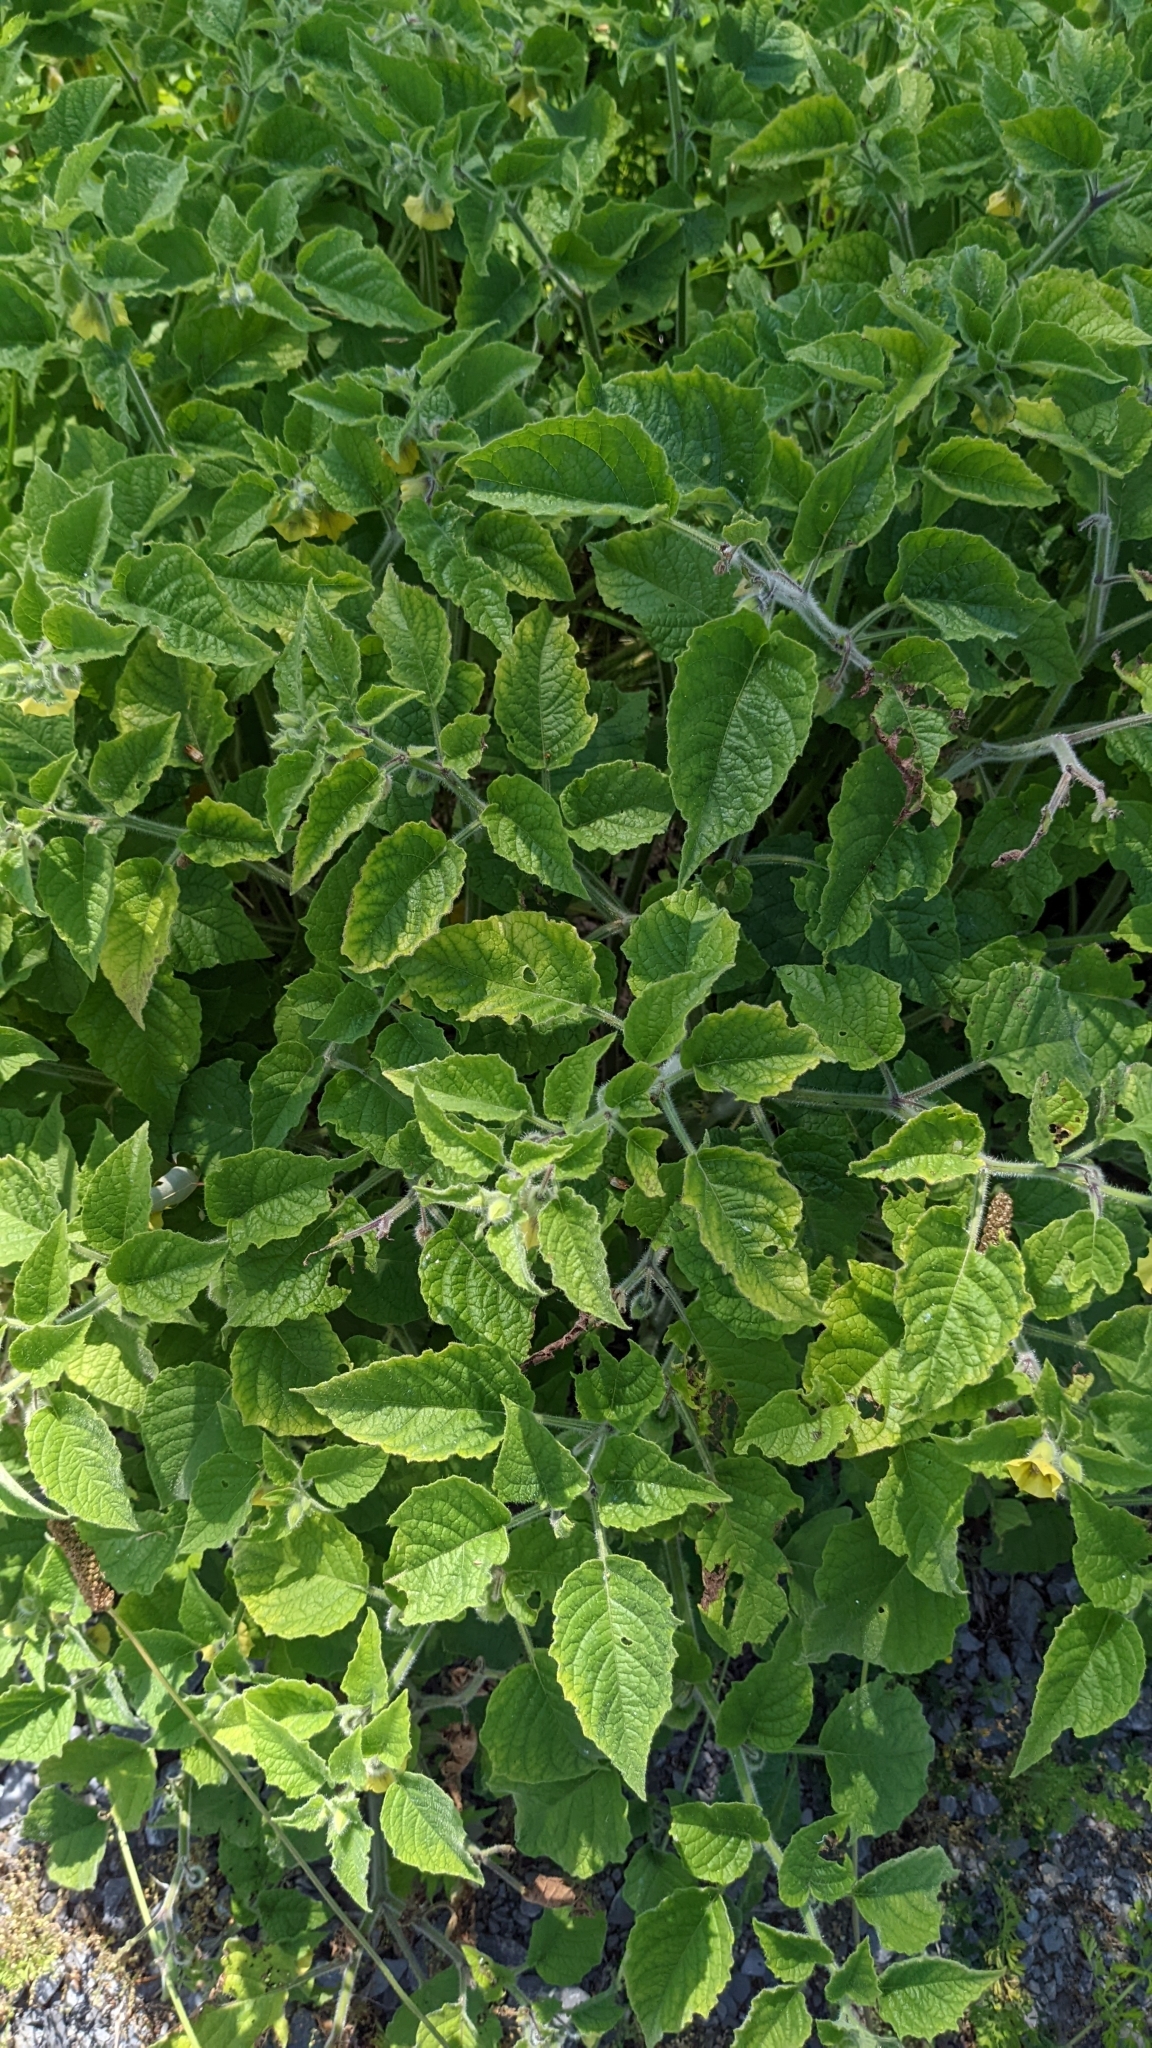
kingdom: Plantae
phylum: Tracheophyta
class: Magnoliopsida
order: Solanales
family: Solanaceae
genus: Physalis
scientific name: Physalis heterophylla
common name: Clammy ground-cherry
